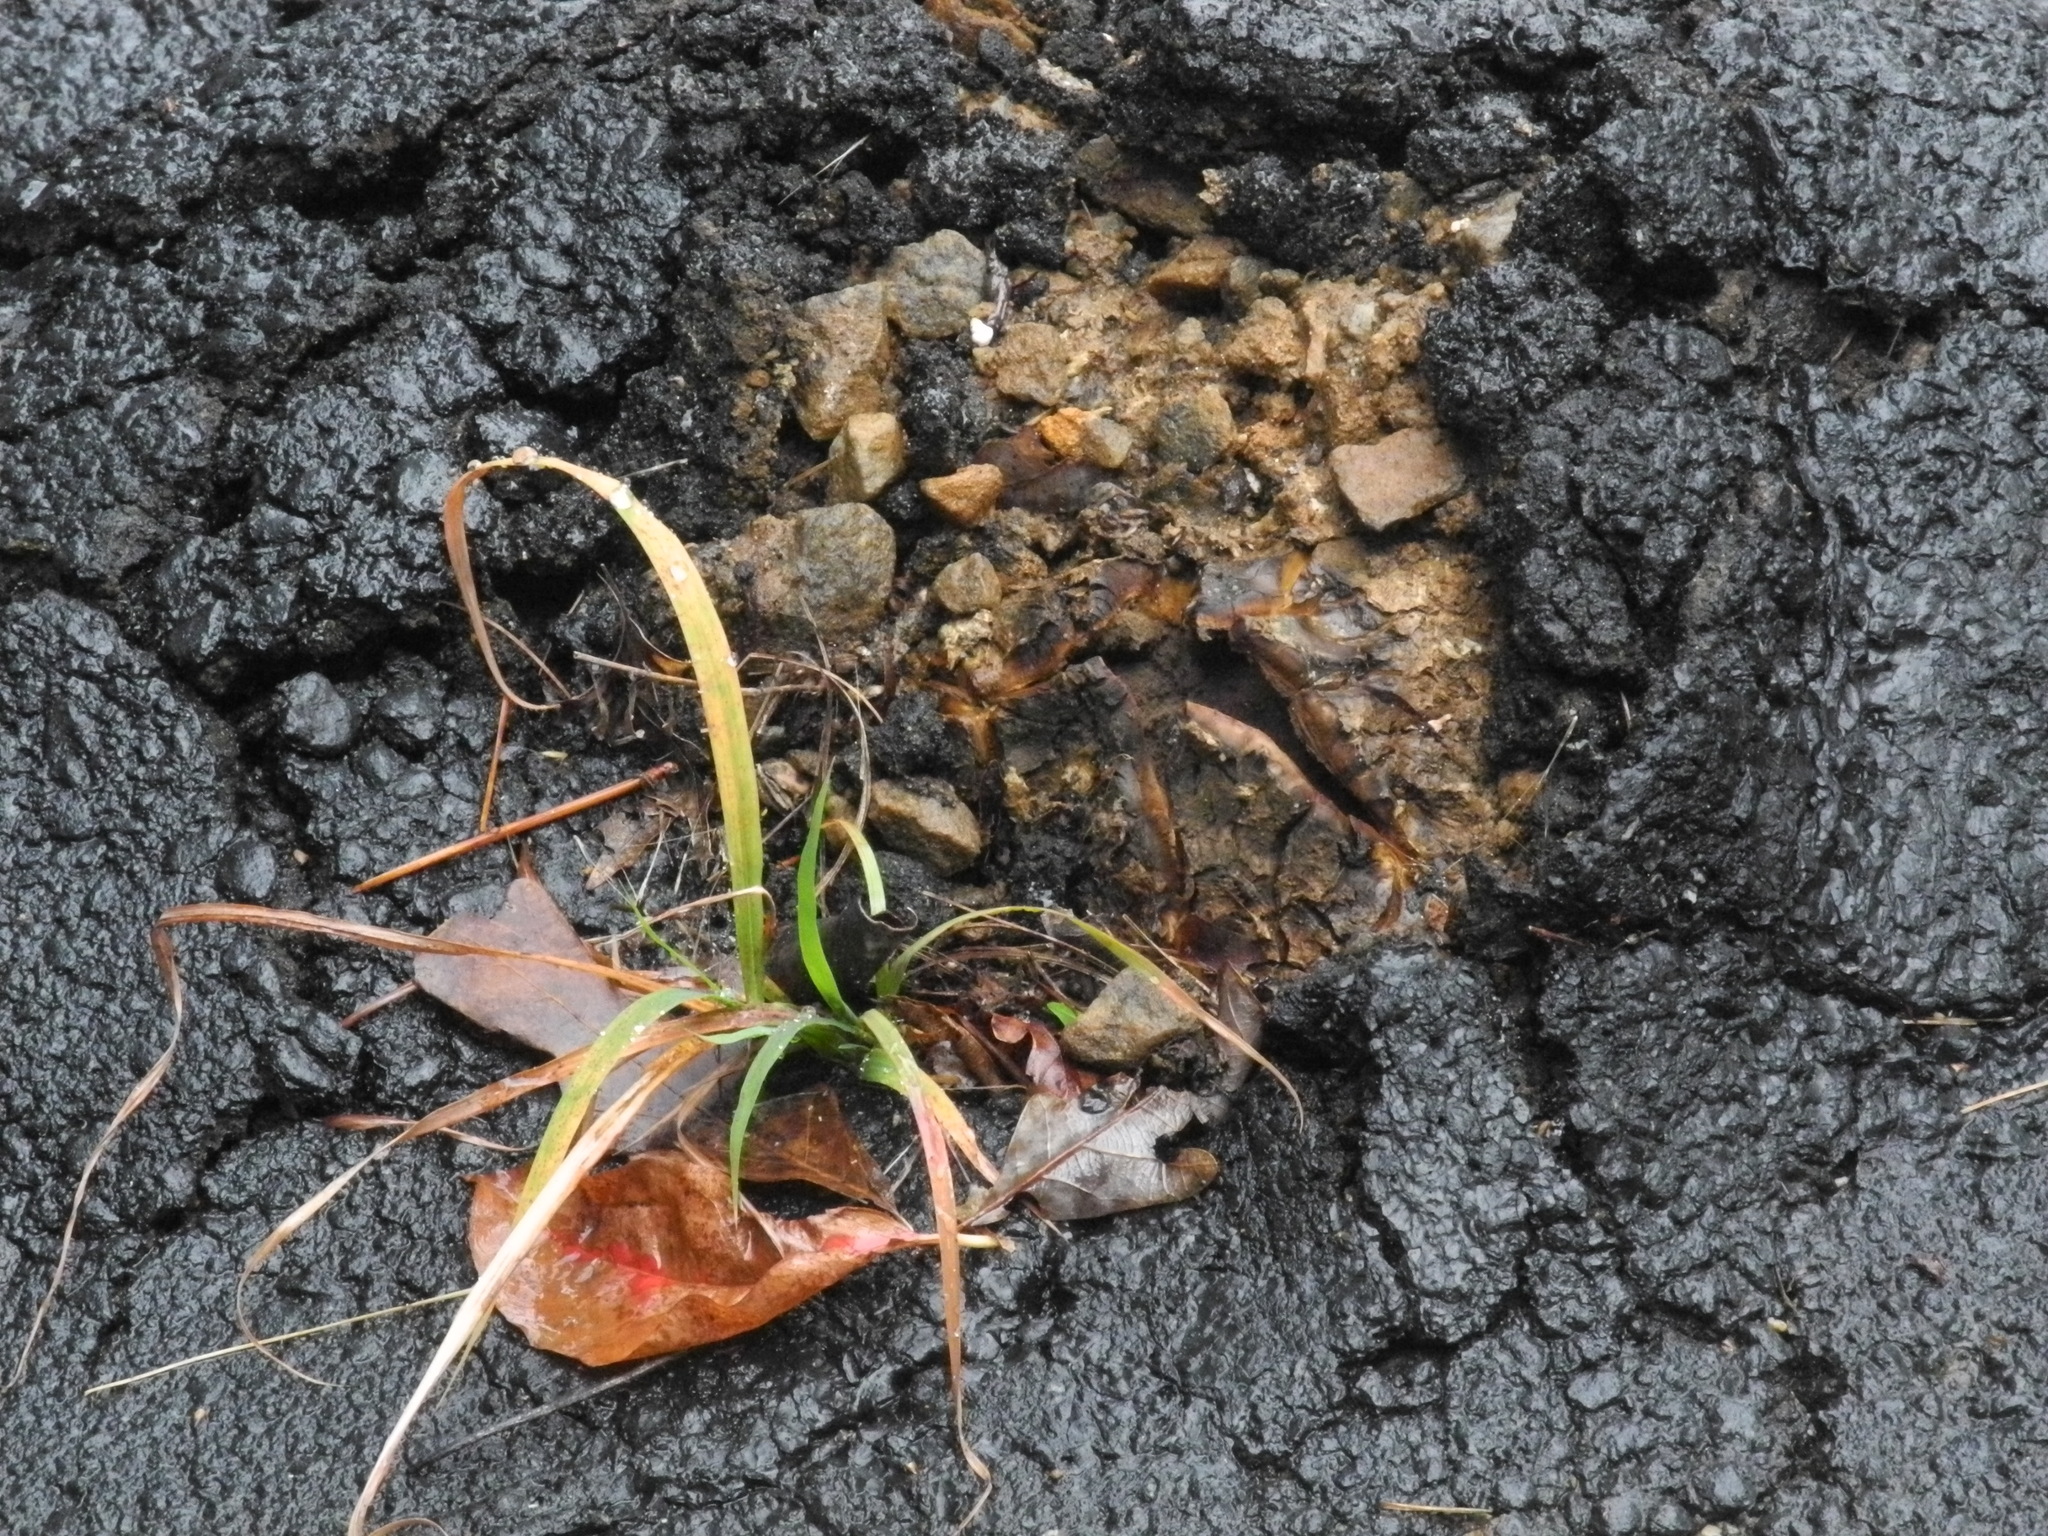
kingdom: Fungi
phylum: Basidiomycota
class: Agaricomycetes
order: Boletales
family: Sclerodermataceae
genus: Scleroderma
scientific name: Scleroderma polyrhizum
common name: Many-rooted earthball
